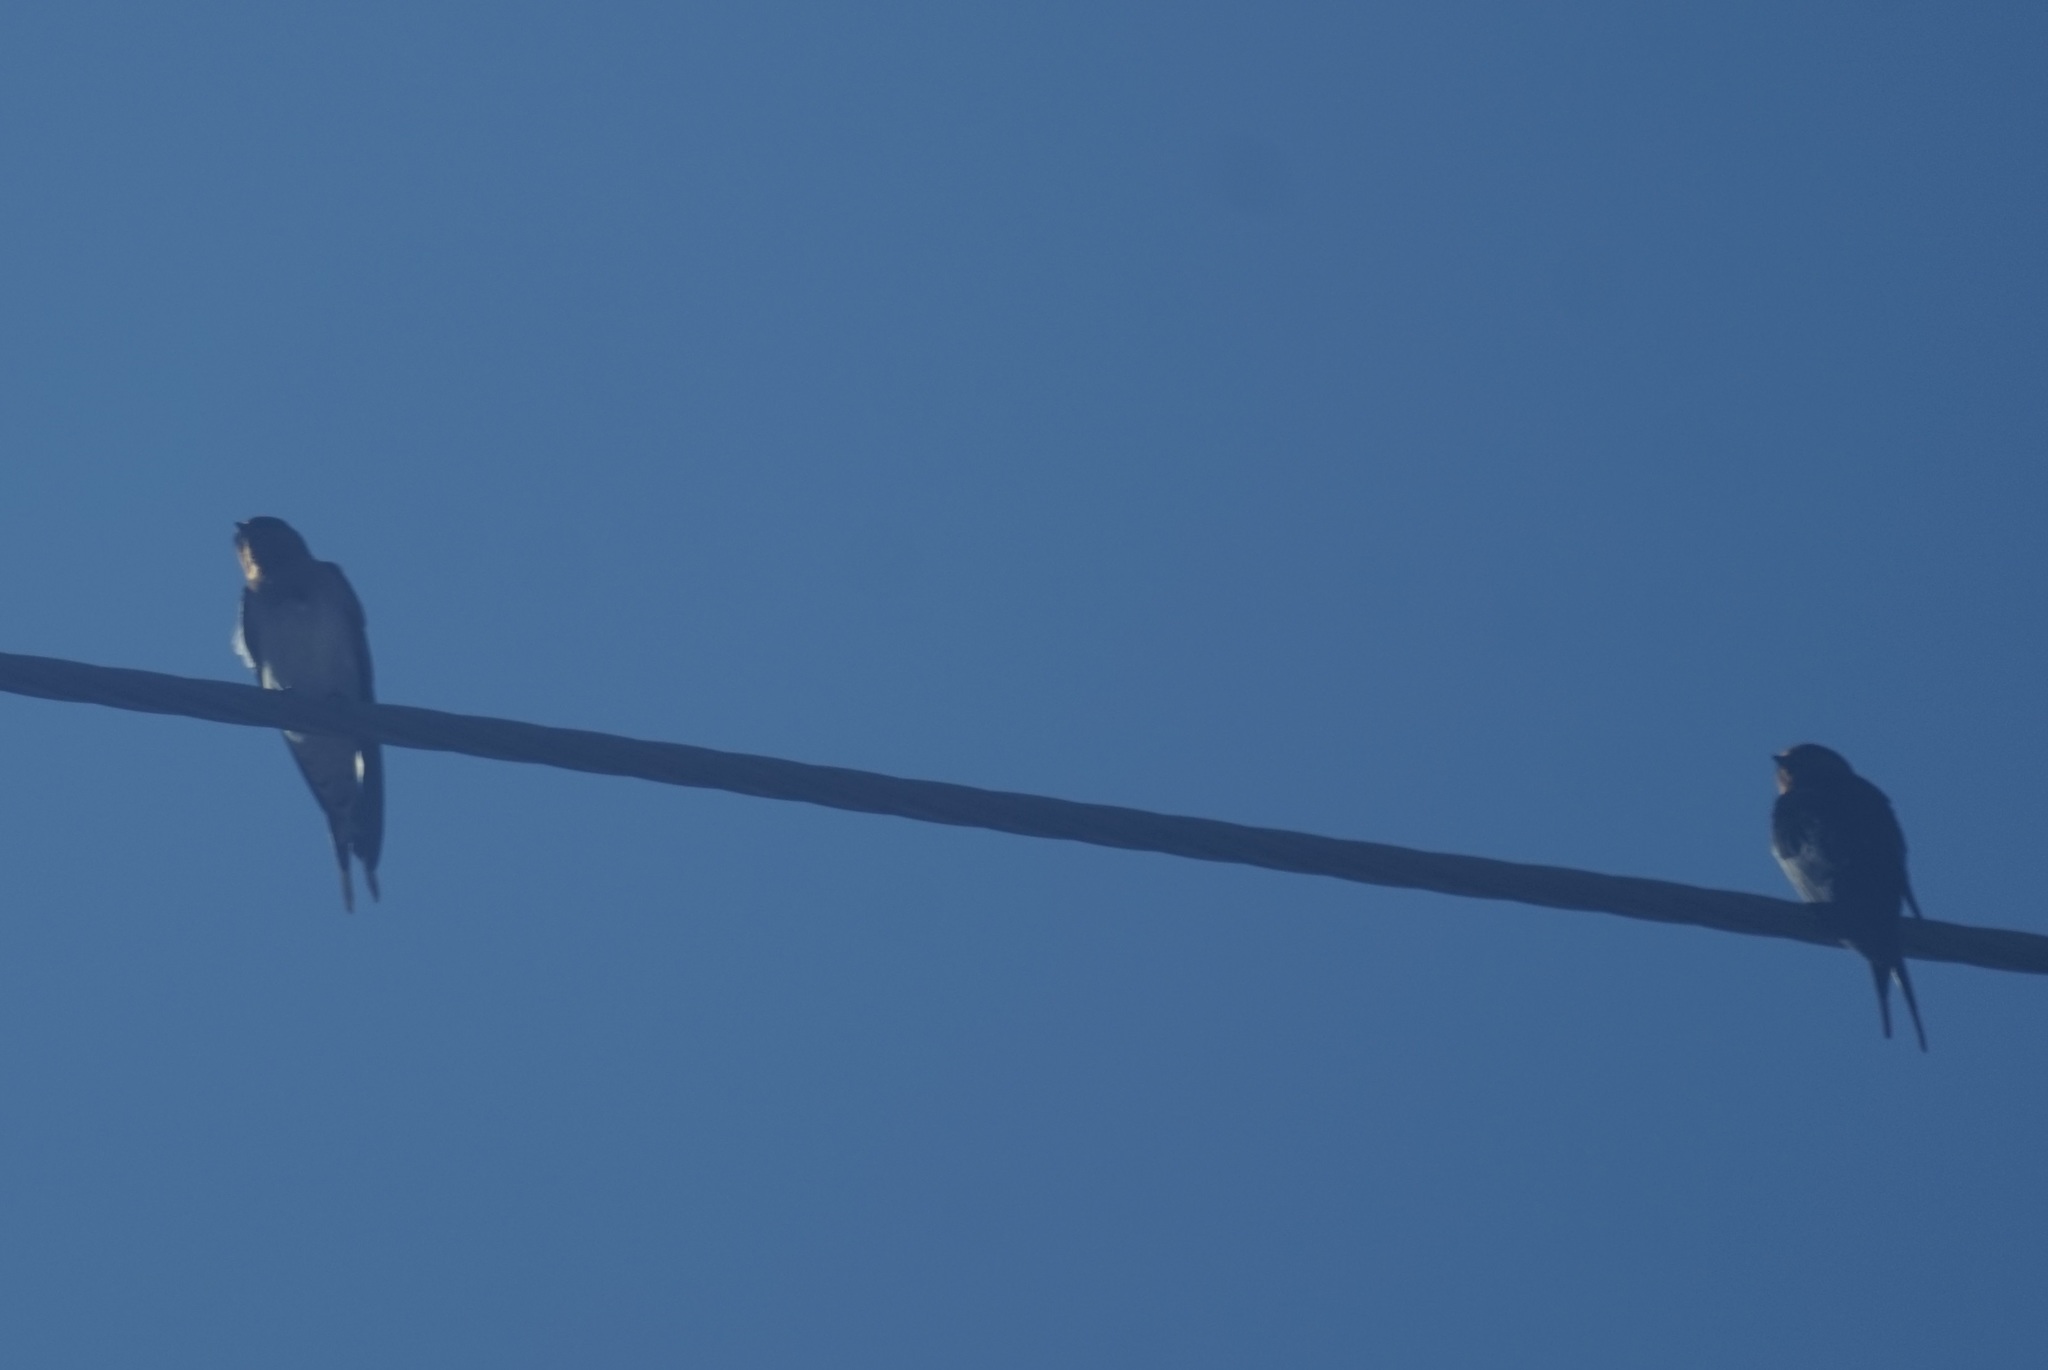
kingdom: Animalia
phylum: Chordata
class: Aves
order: Passeriformes
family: Hirundinidae
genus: Hirundo
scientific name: Hirundo neoxena
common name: Welcome swallow
